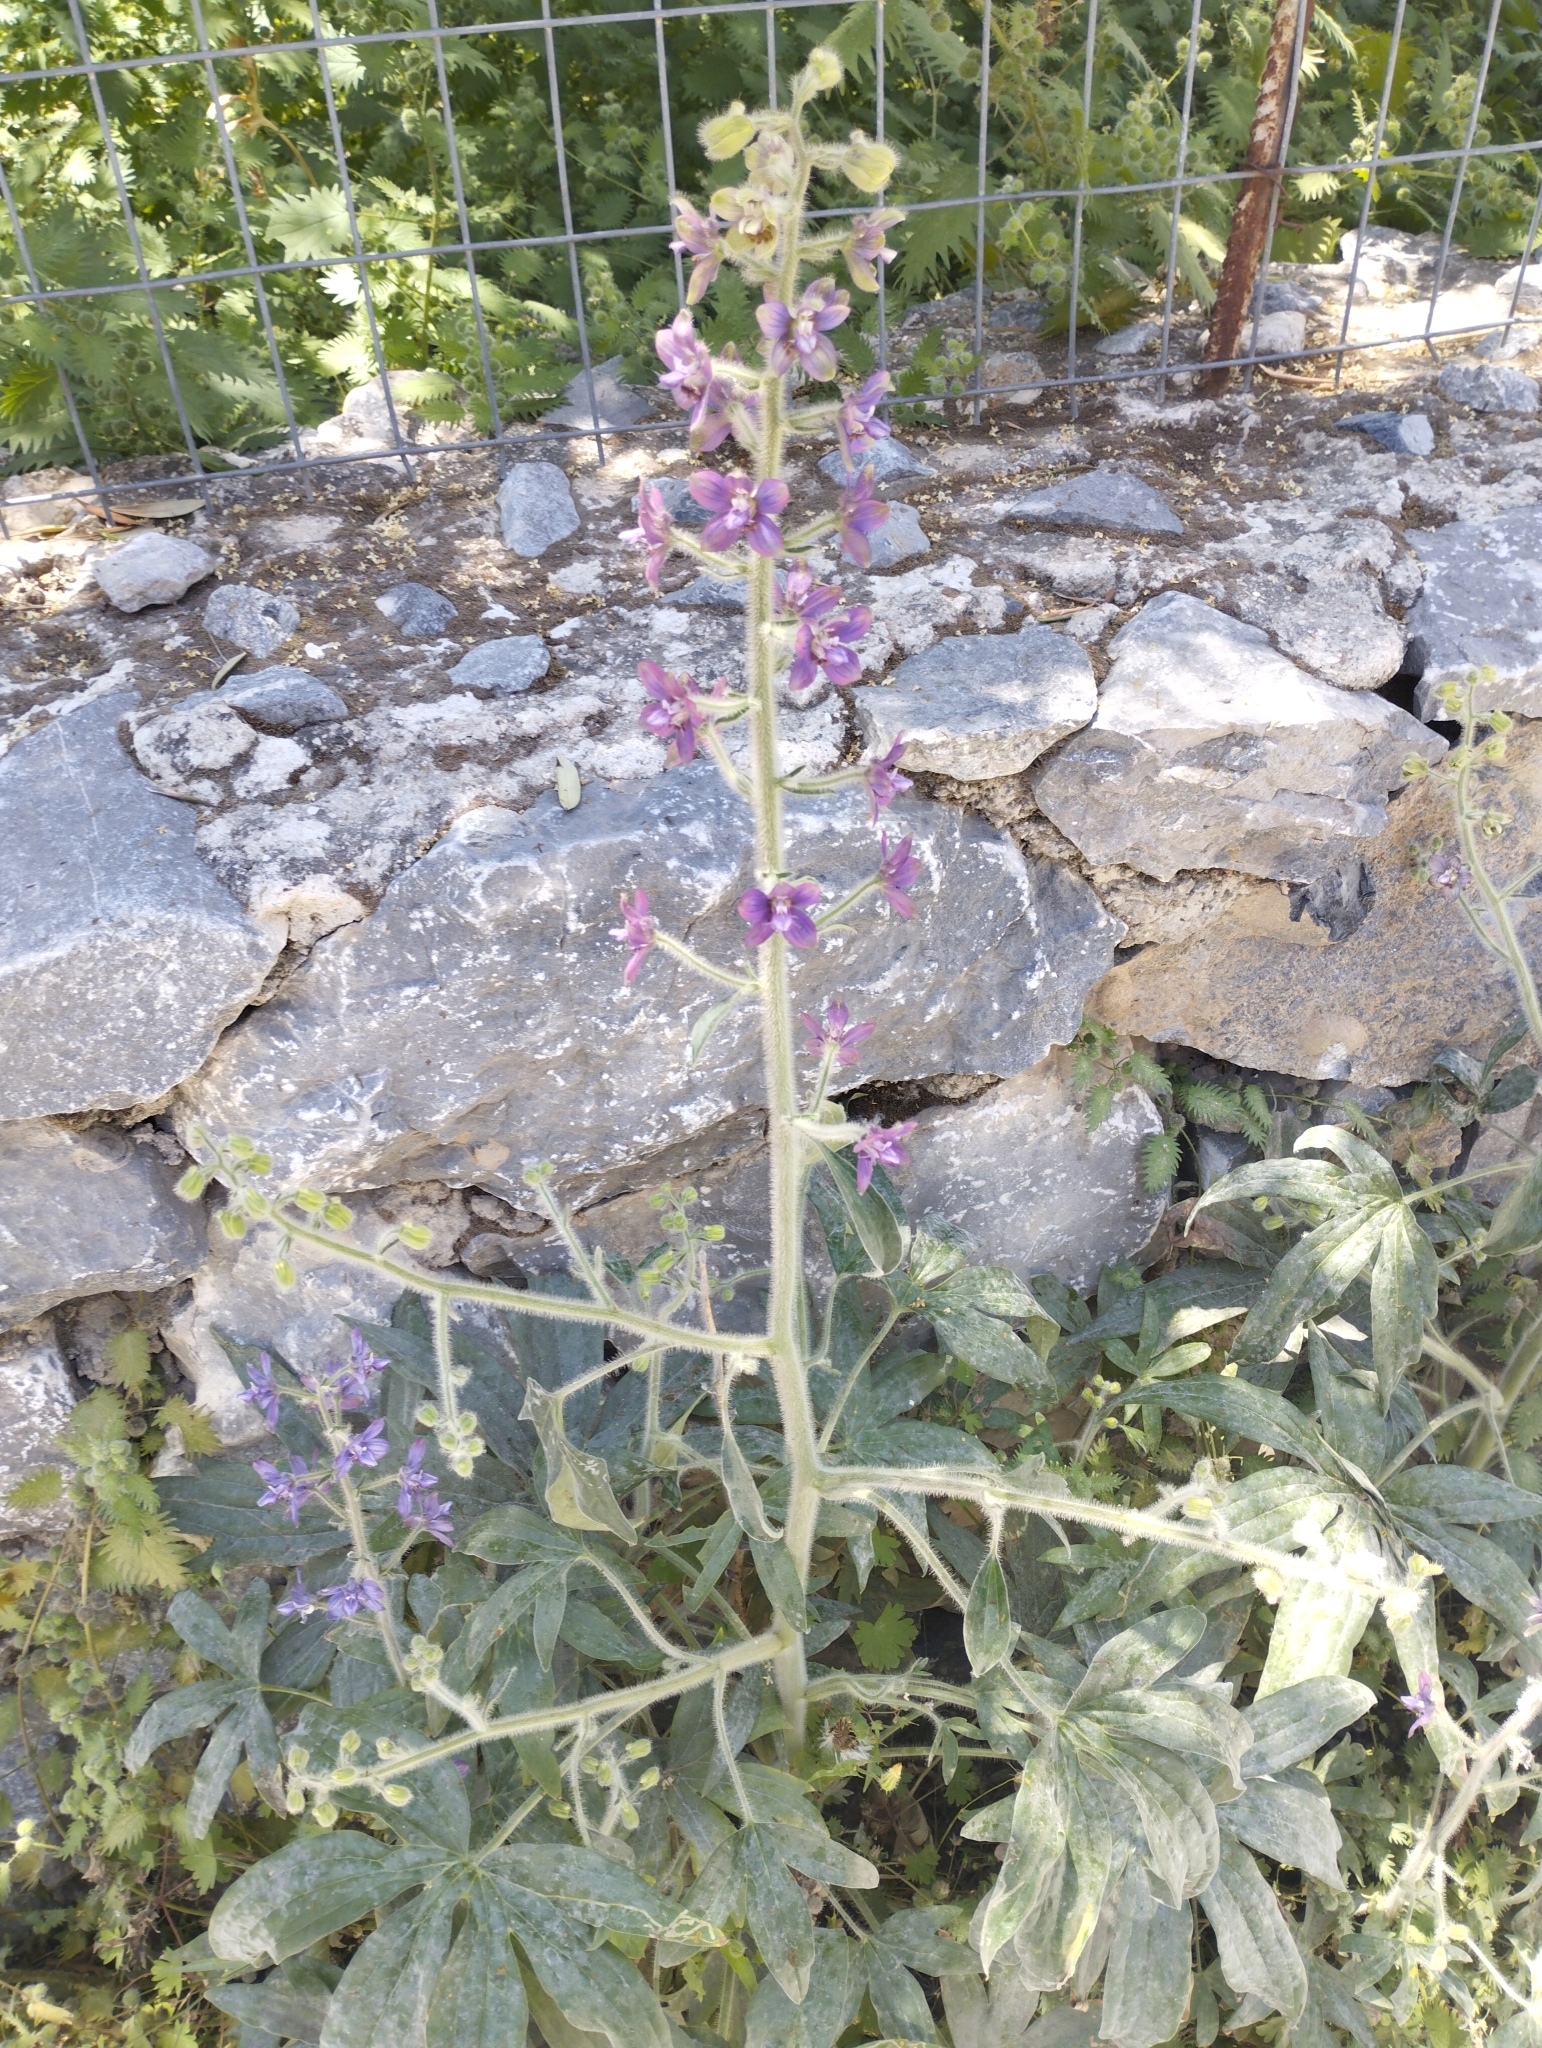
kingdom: Plantae
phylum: Tracheophyta
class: Magnoliopsida
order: Ranunculales
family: Ranunculaceae
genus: Staphisagria
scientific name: Staphisagria macrosperma
